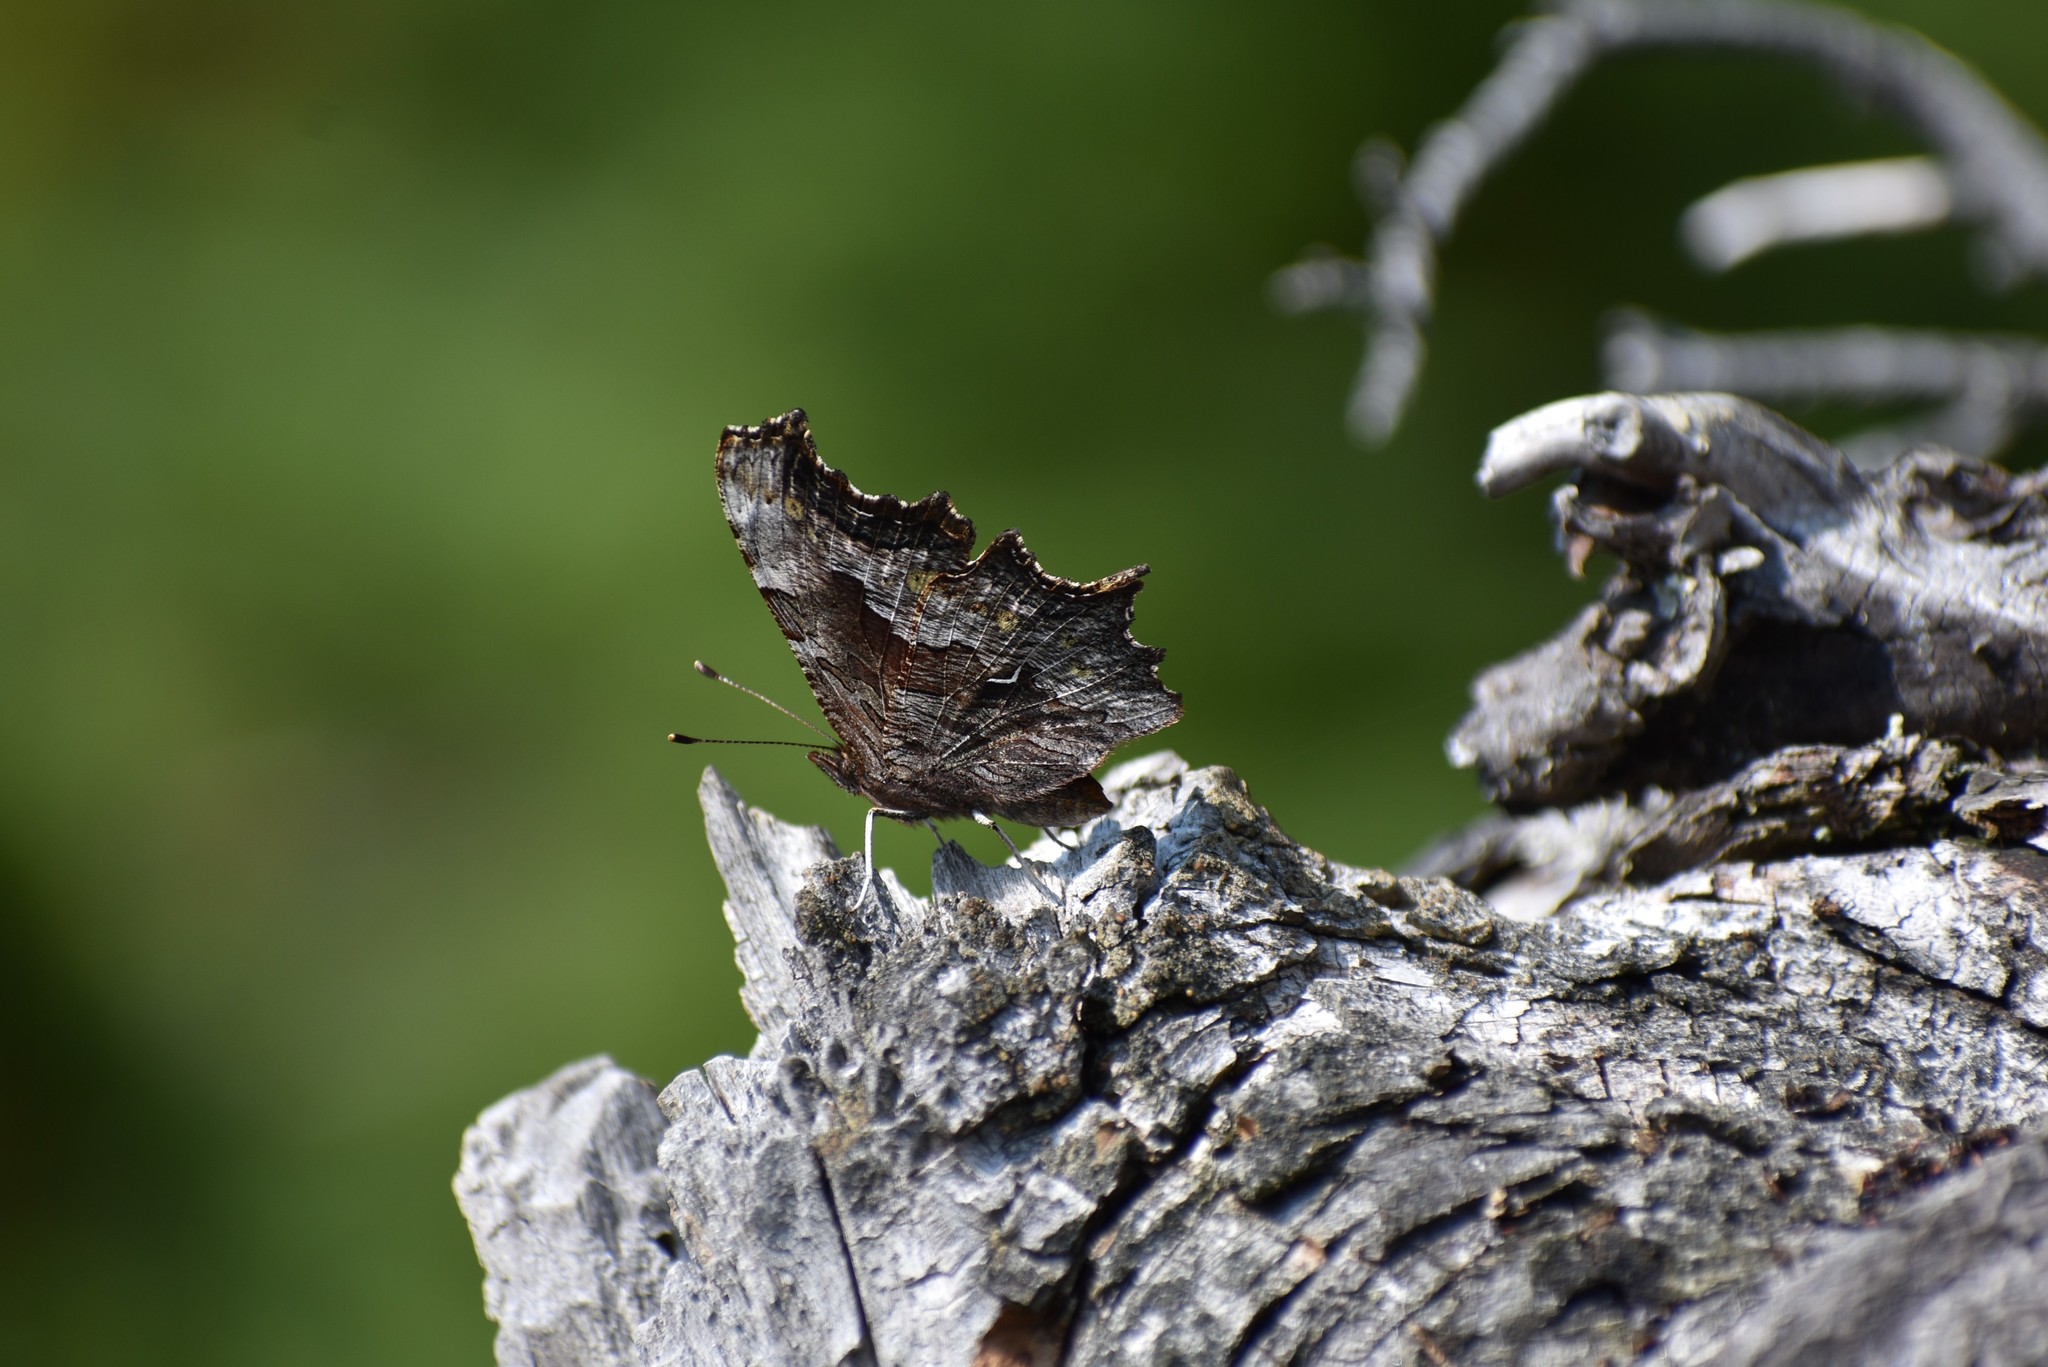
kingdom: Animalia
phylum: Arthropoda
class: Insecta
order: Lepidoptera
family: Nymphalidae
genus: Polygonia
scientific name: Polygonia gracilis
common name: Hoary comma
